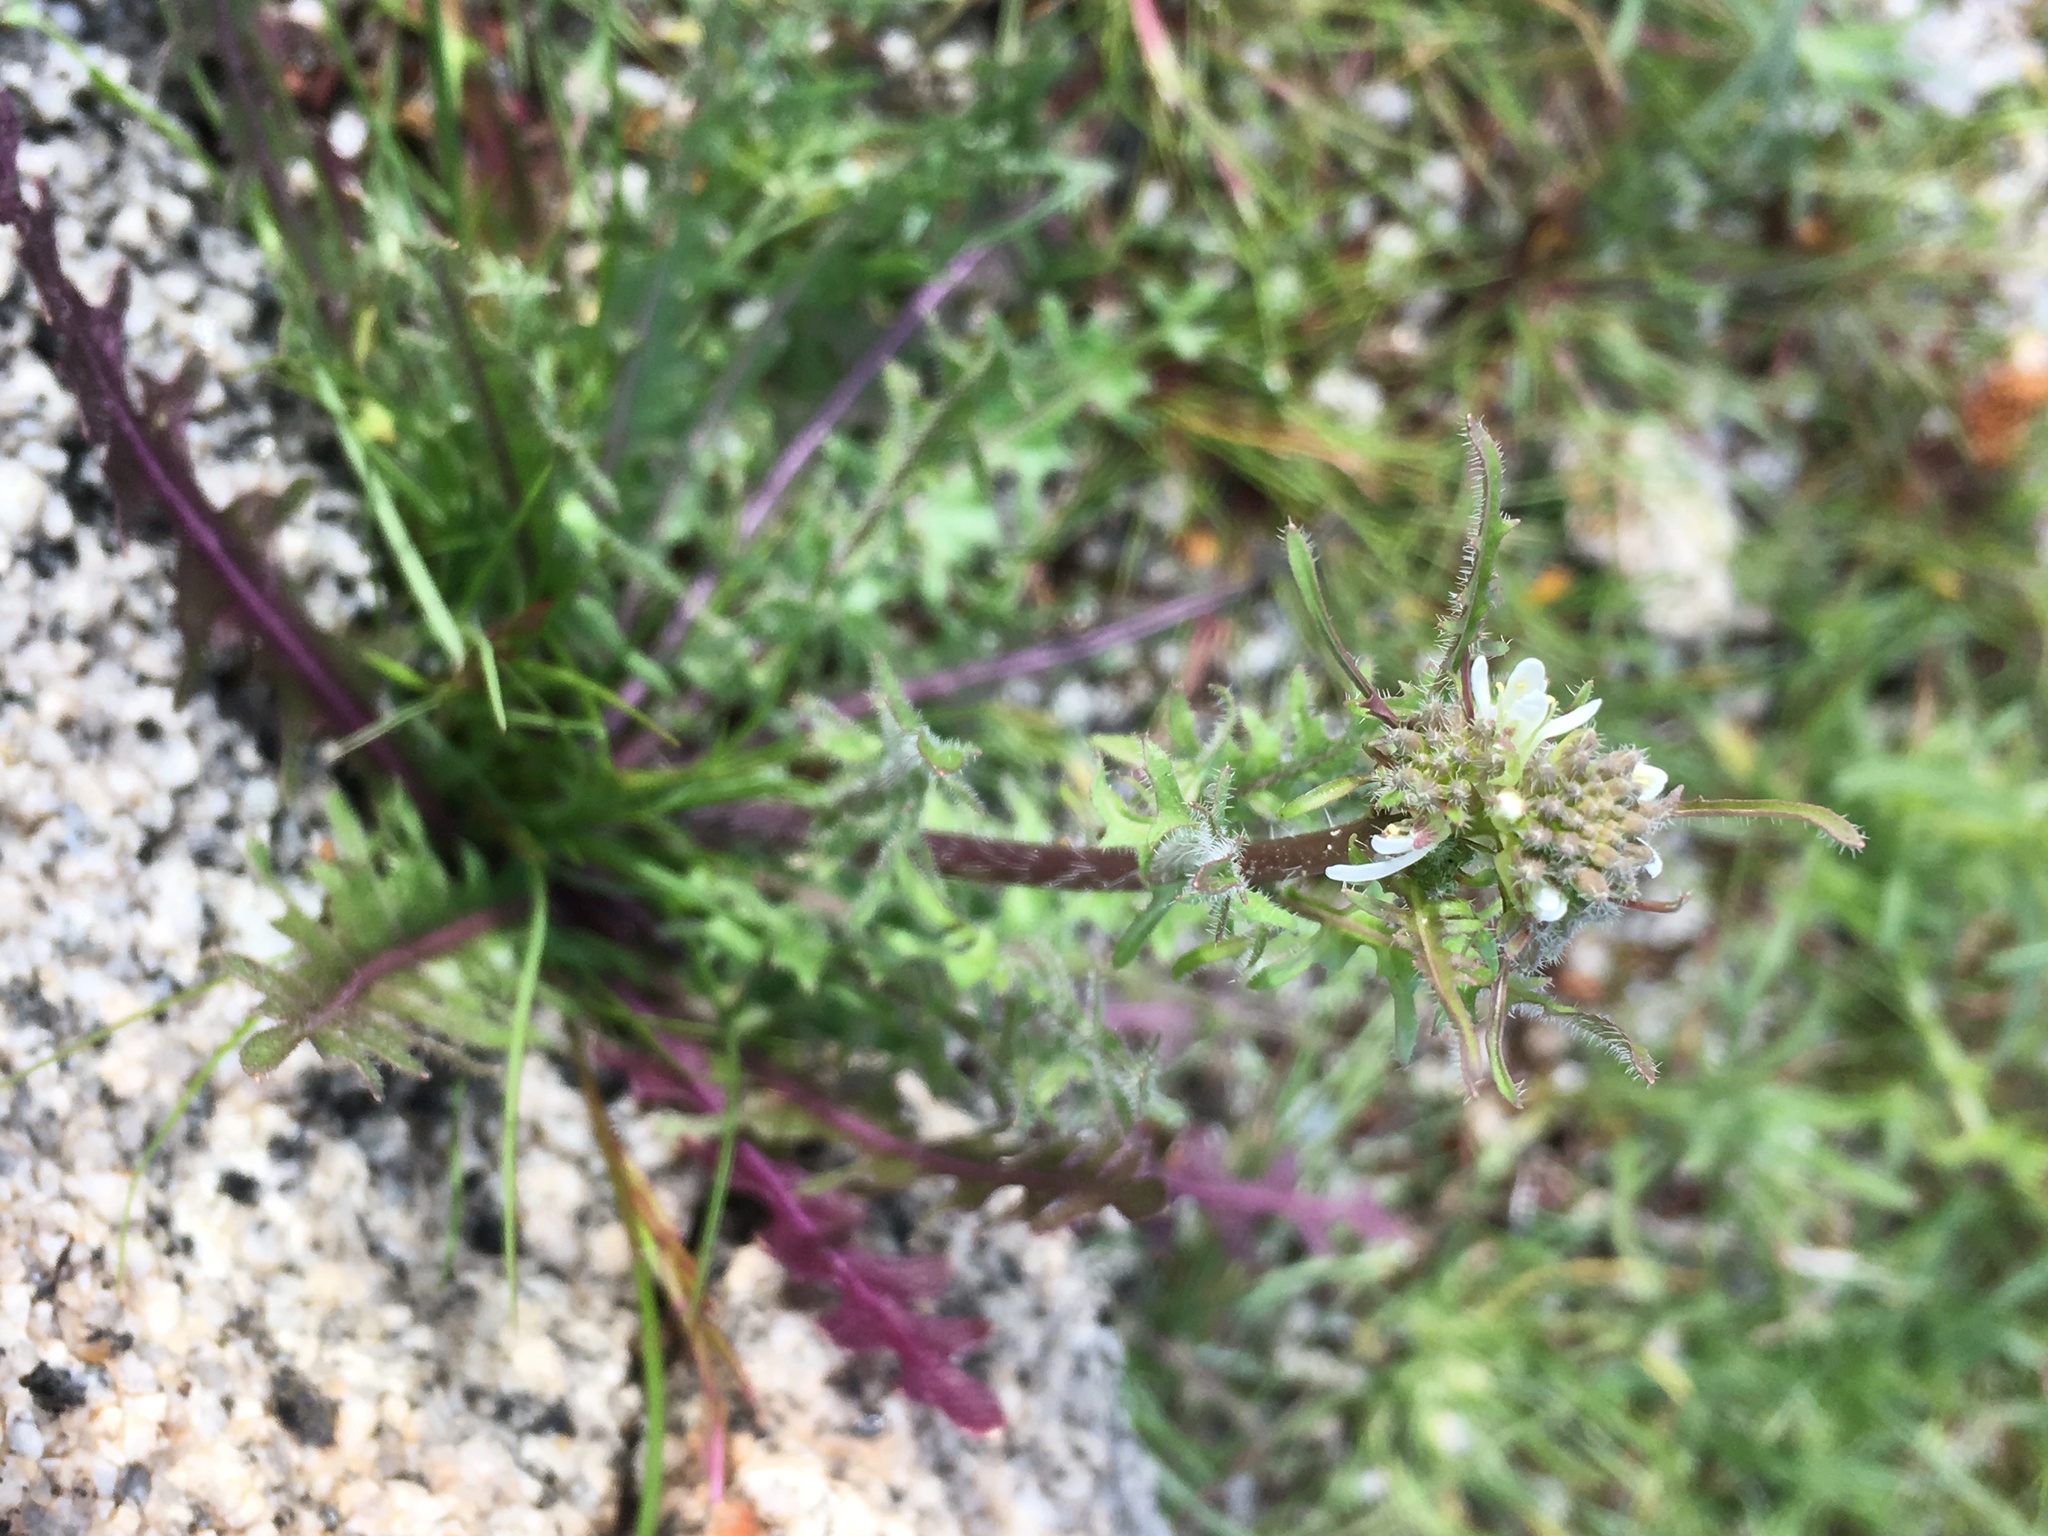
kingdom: Plantae
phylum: Tracheophyta
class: Magnoliopsida
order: Brassicales
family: Brassicaceae
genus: Streptanthus
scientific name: Streptanthus lasiophyllus
